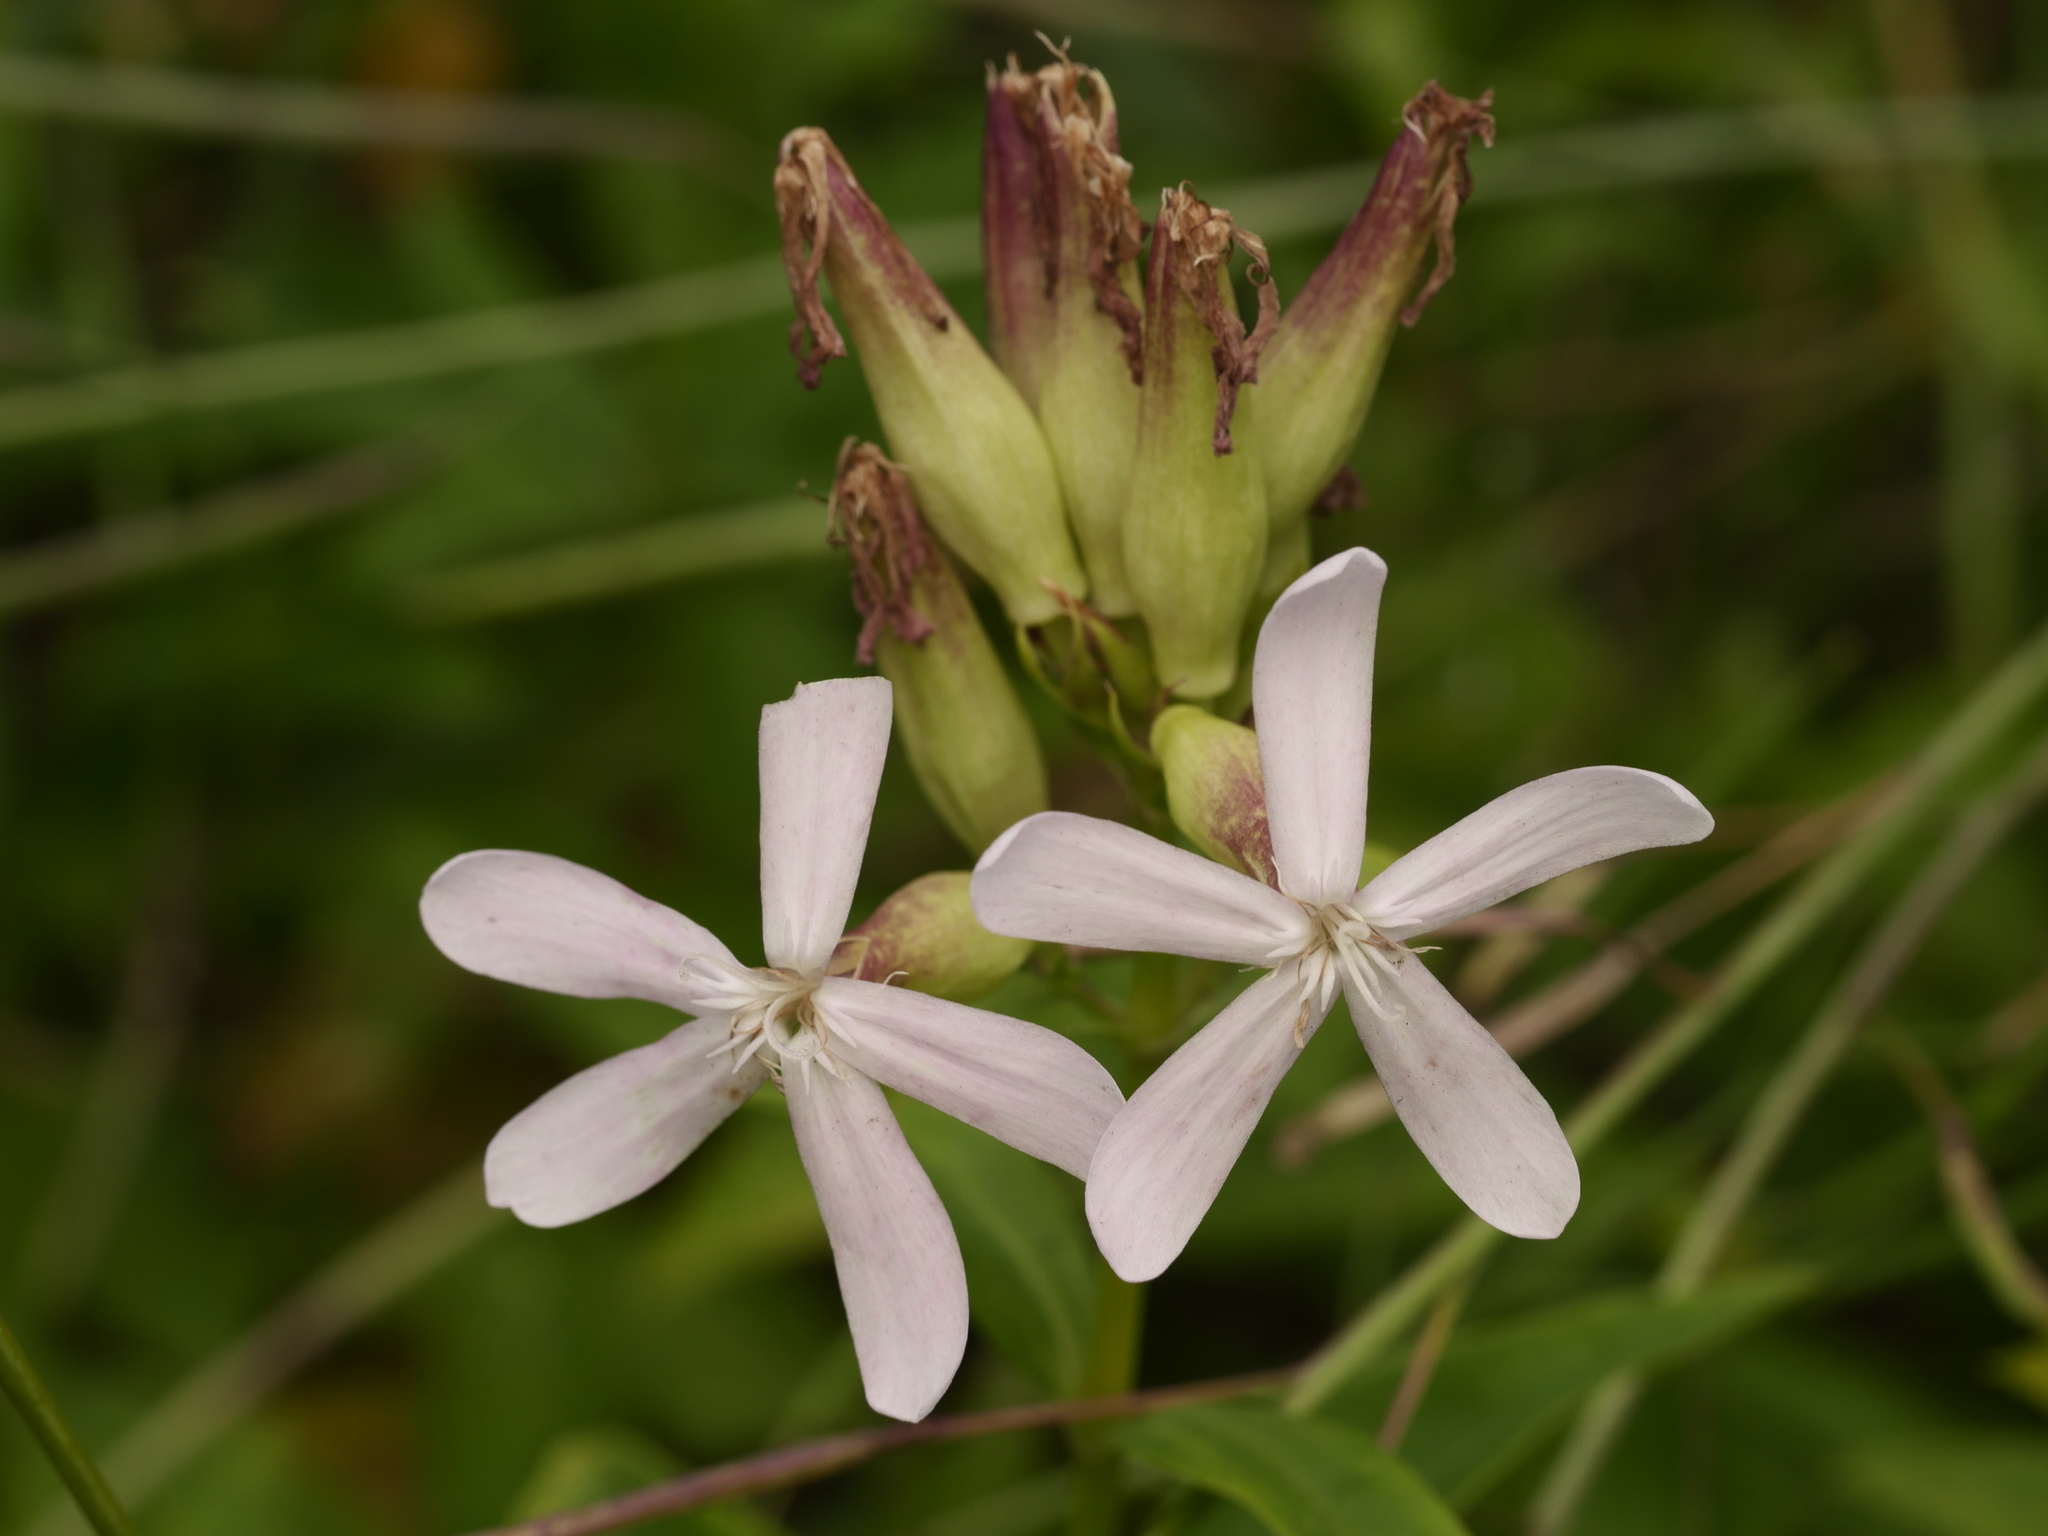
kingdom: Plantae
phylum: Tracheophyta
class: Magnoliopsida
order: Caryophyllales
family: Caryophyllaceae
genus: Saponaria
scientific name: Saponaria officinalis
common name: Soapwort
